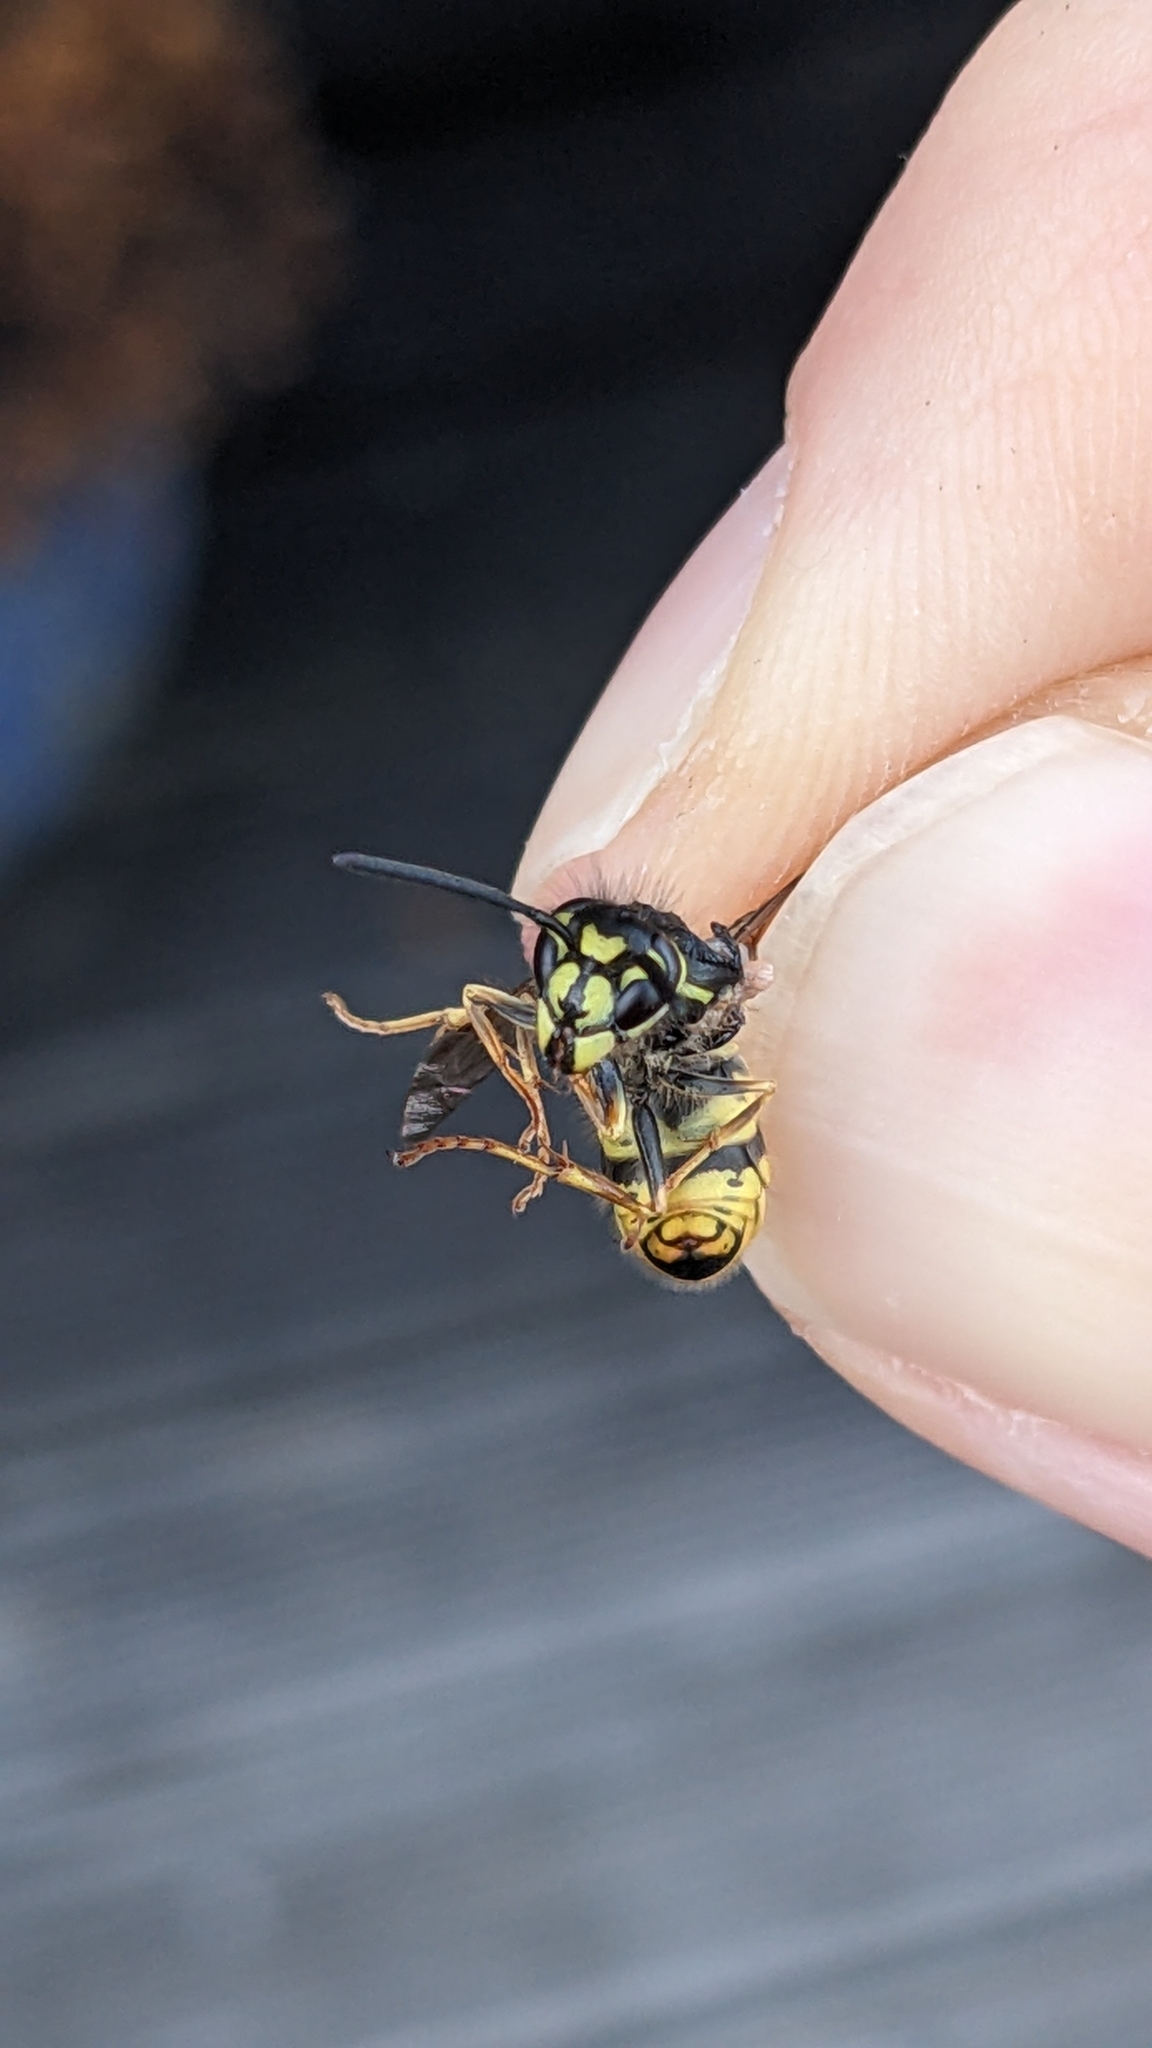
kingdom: Animalia
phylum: Arthropoda
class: Insecta
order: Hymenoptera
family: Vespidae
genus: Vespula
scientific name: Vespula vulgaris
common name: Common wasp
